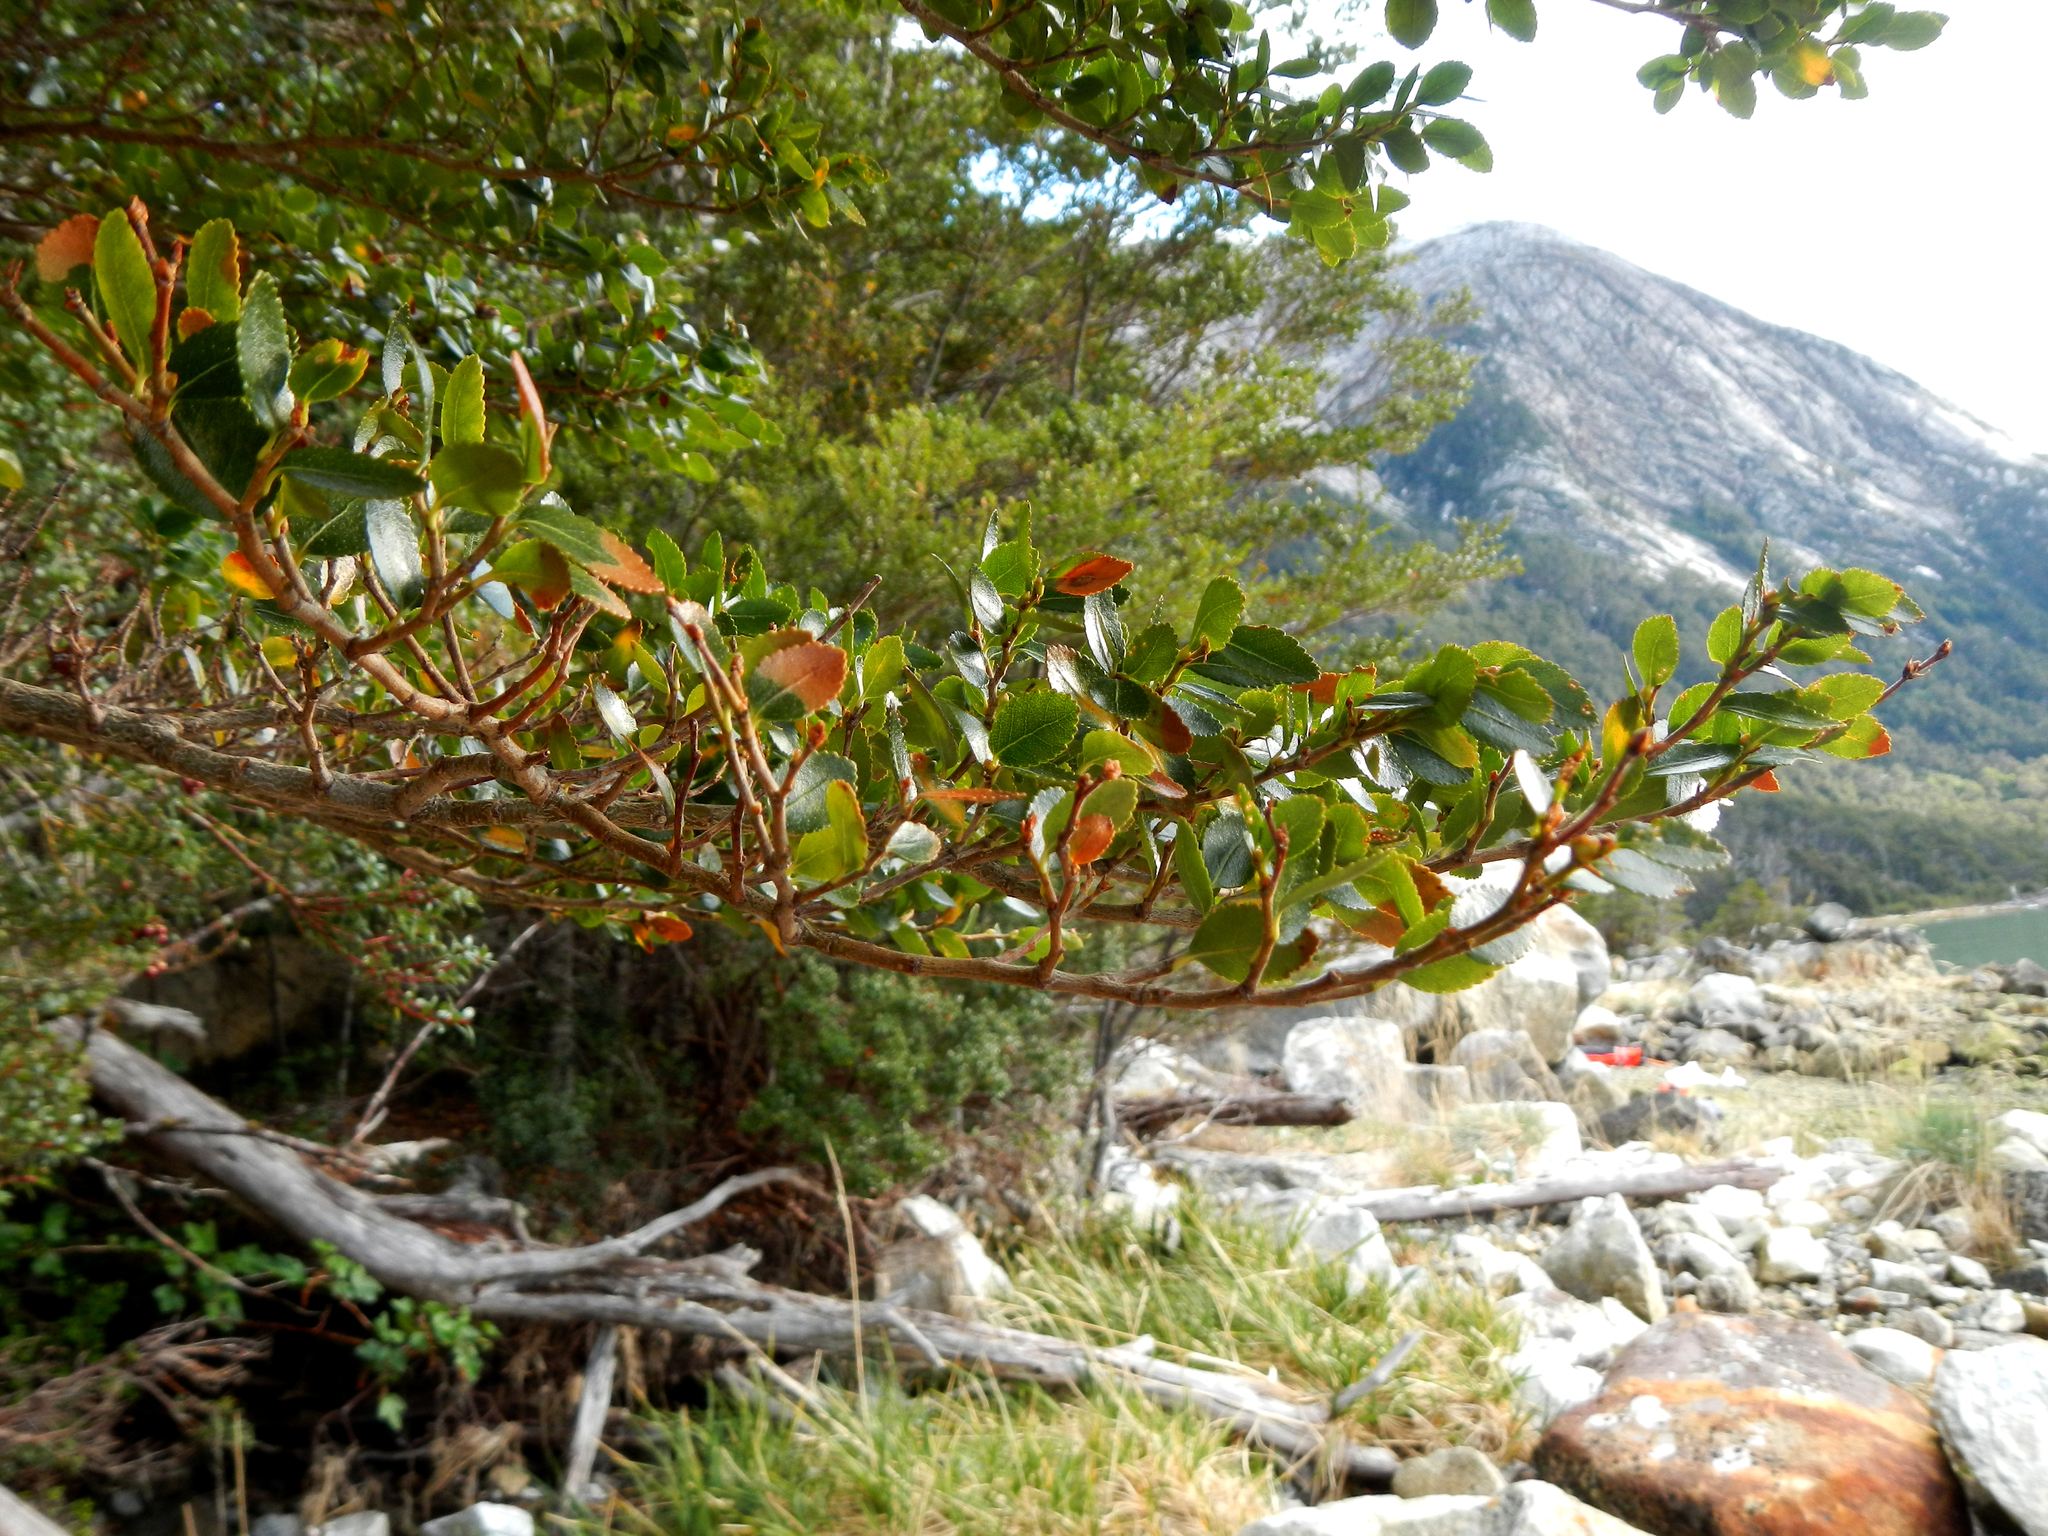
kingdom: Plantae
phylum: Tracheophyta
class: Magnoliopsida
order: Fagales
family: Nothofagaceae
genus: Nothofagus
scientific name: Nothofagus betuloides
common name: Magellan's beech
